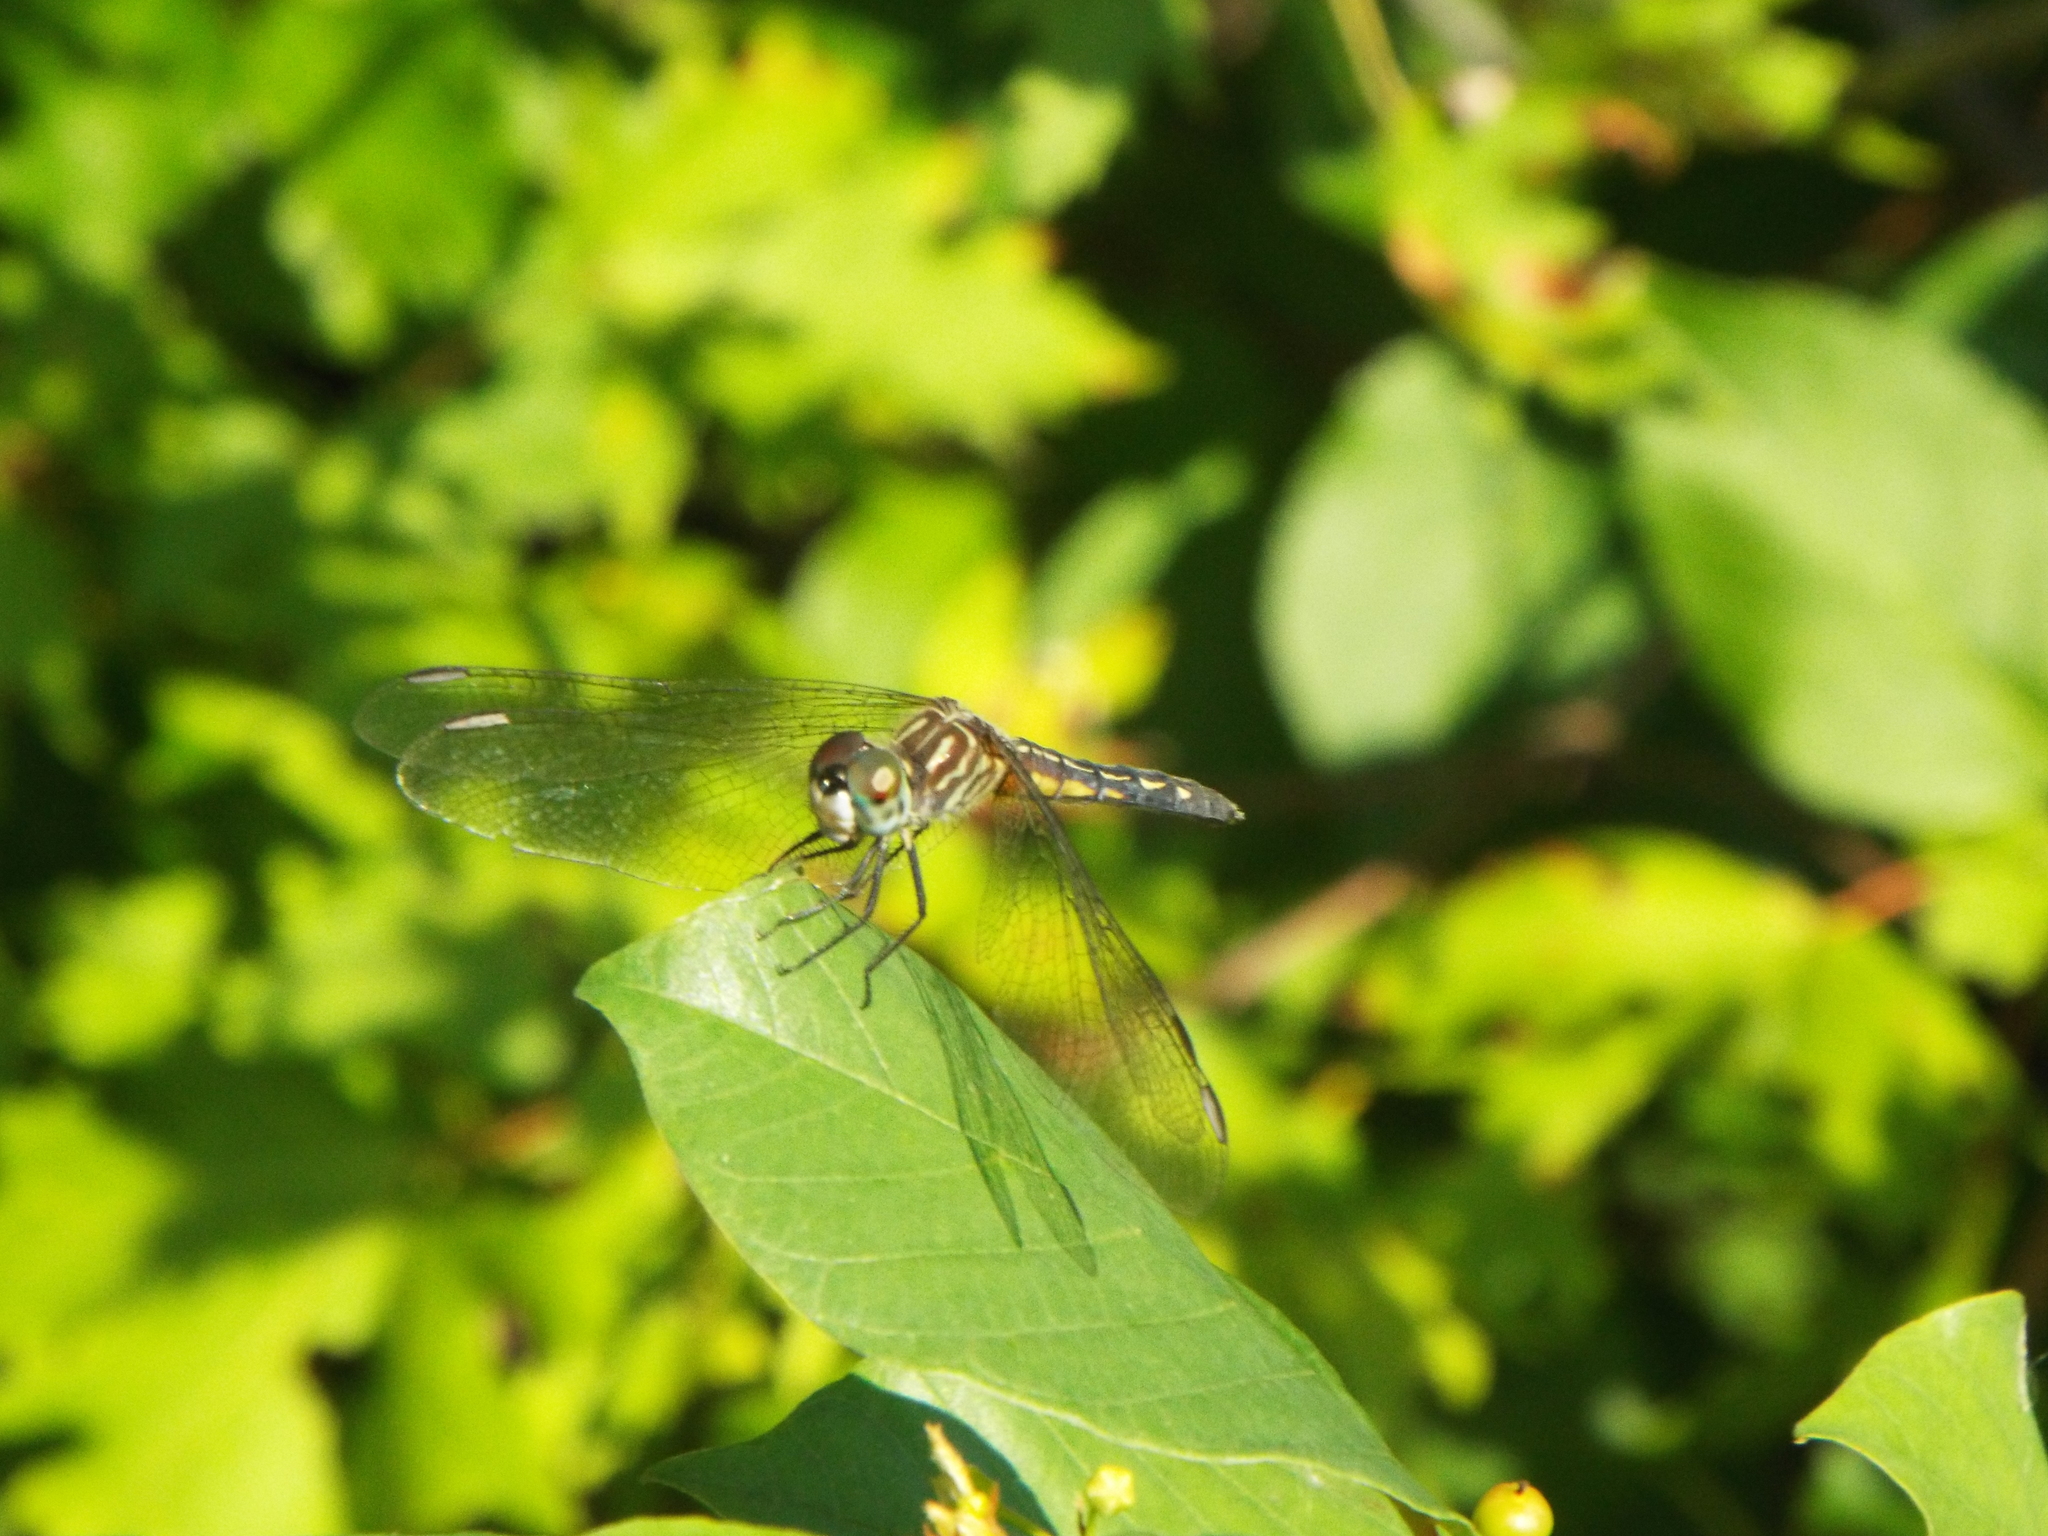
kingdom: Animalia
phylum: Arthropoda
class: Insecta
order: Odonata
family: Libellulidae
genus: Pachydiplax
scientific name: Pachydiplax longipennis
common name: Blue dasher
